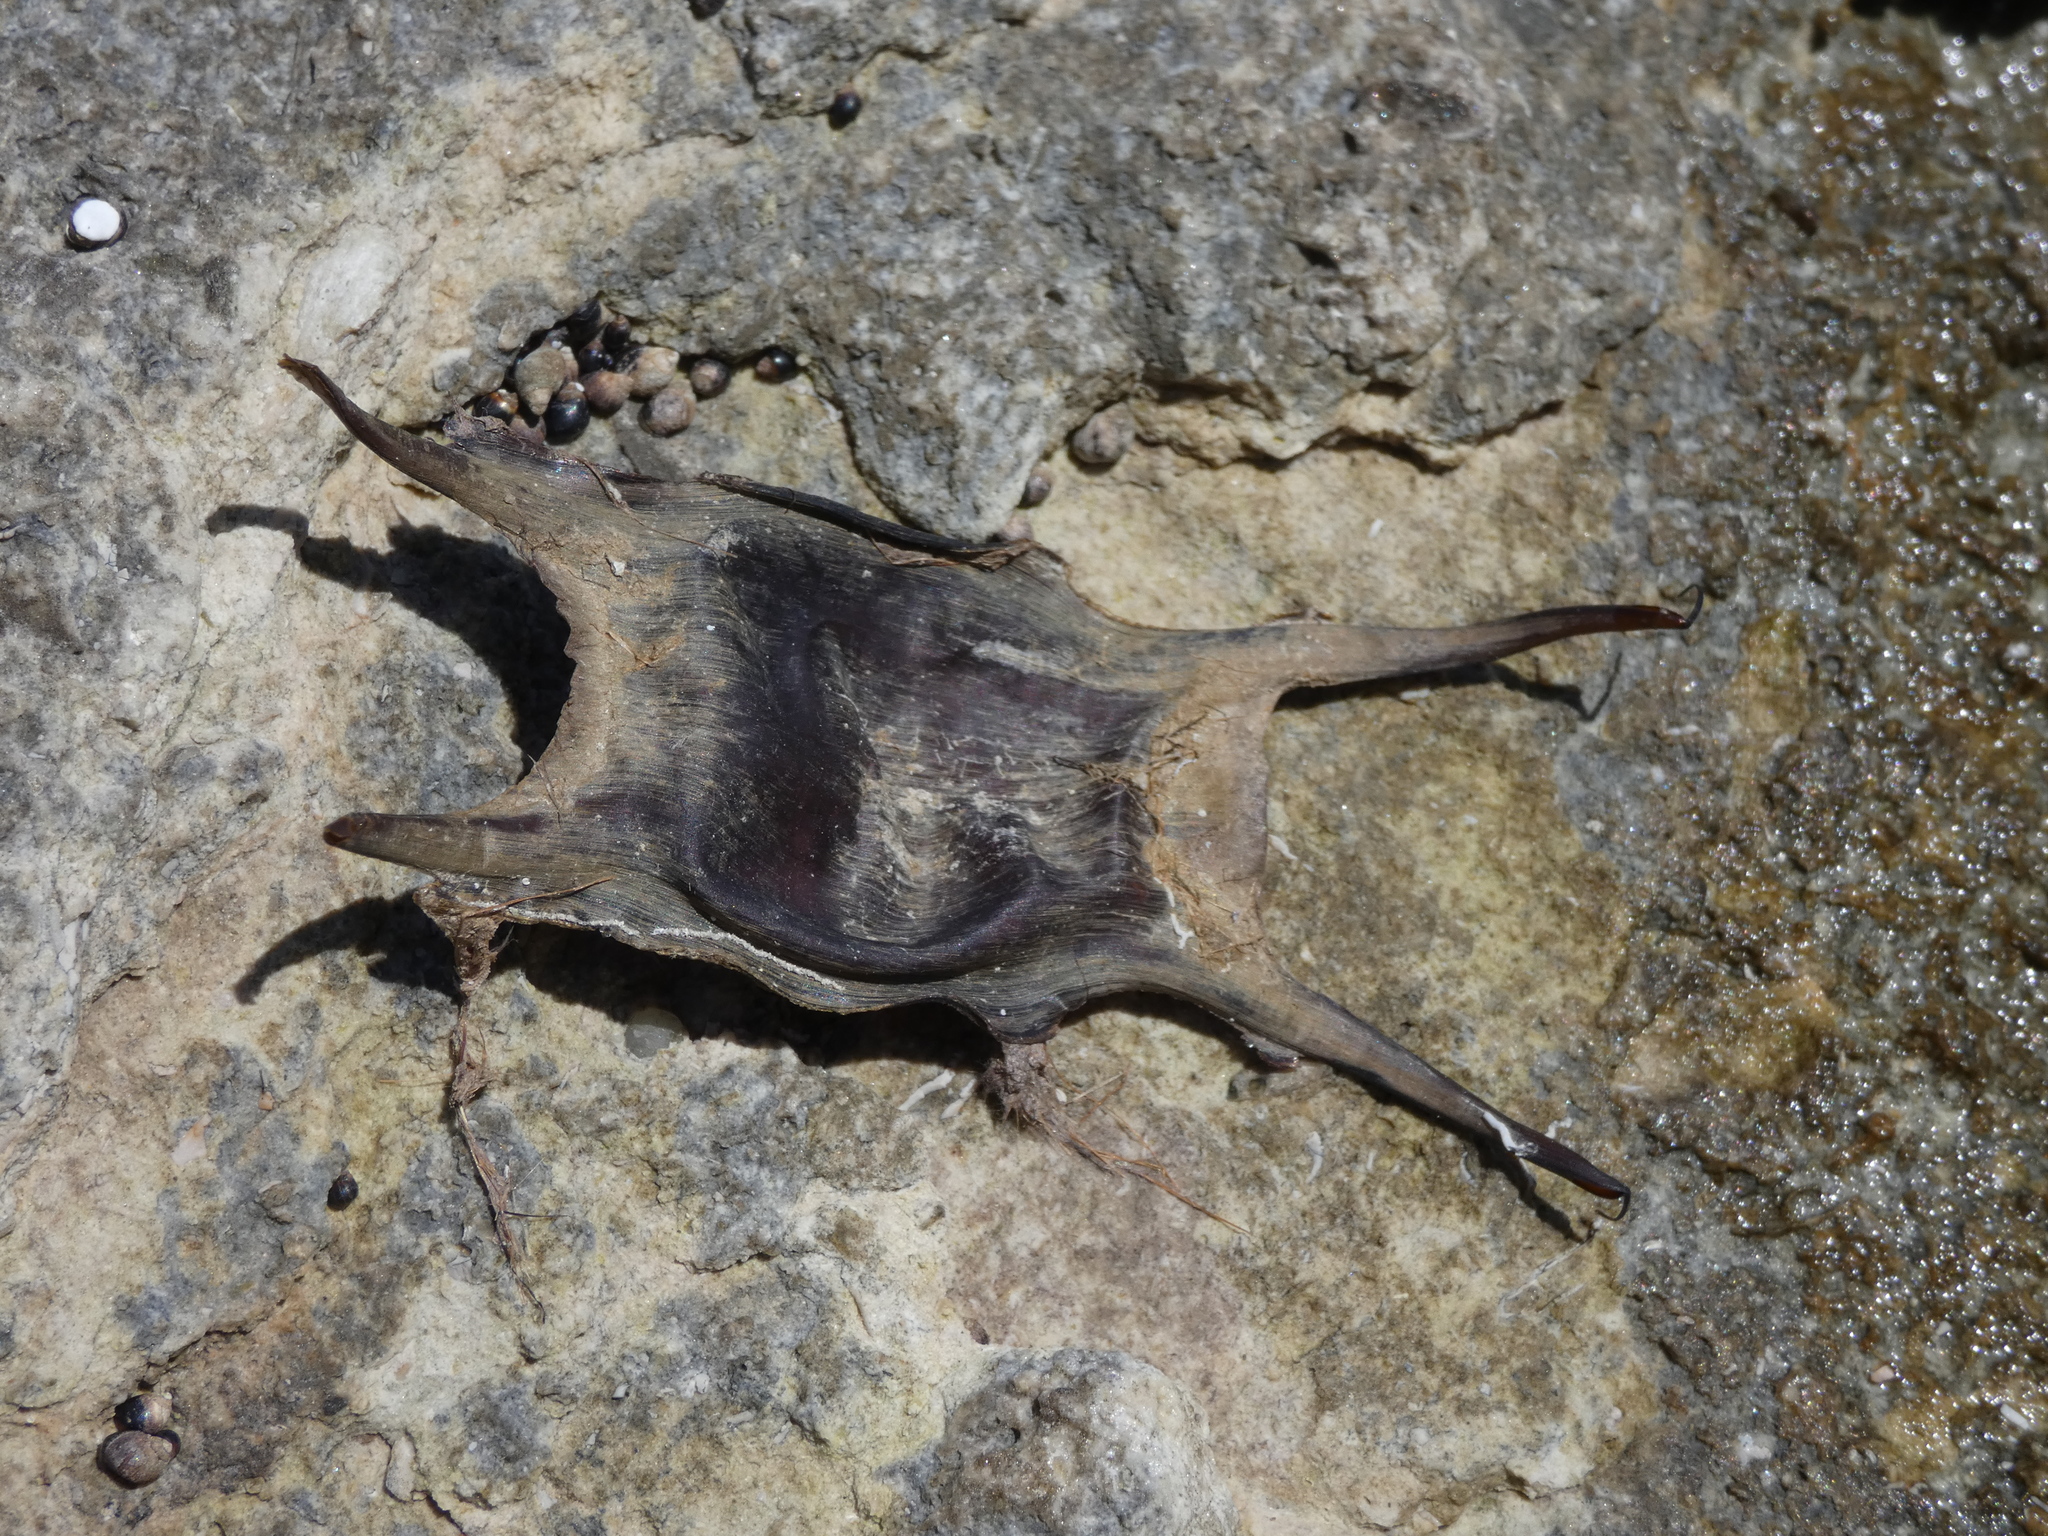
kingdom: Animalia
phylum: Chordata
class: Elasmobranchii
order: Rajiformes
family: Rajidae
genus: Raja
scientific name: Raja clavata
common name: Thornback ray
